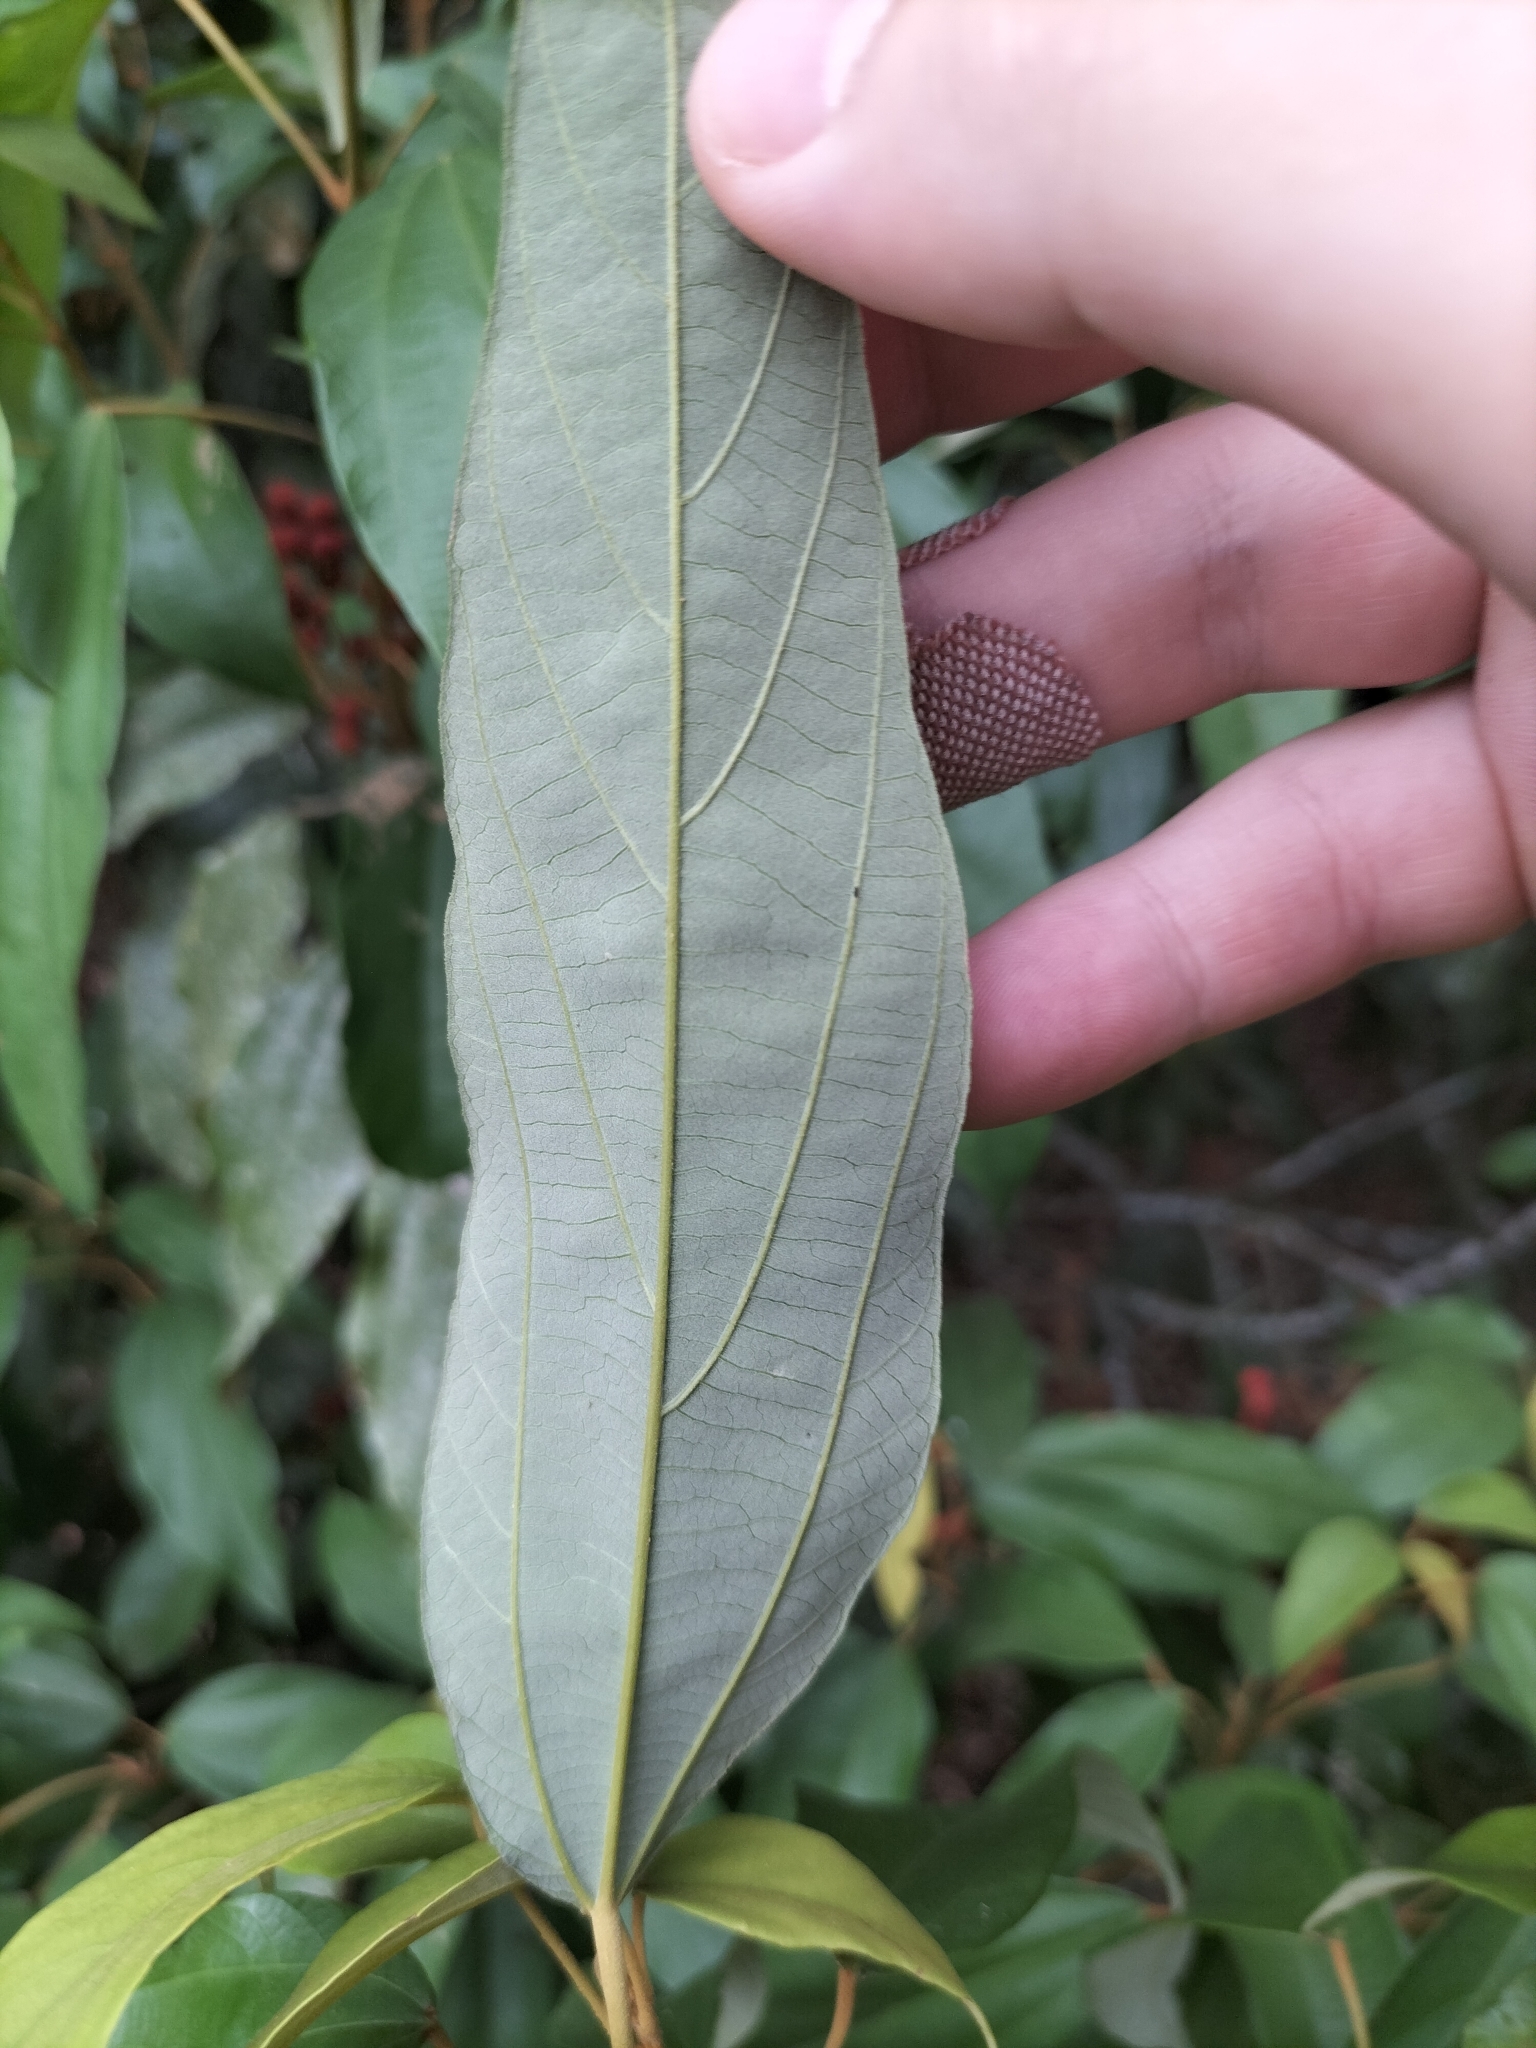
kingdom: Plantae
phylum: Tracheophyta
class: Magnoliopsida
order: Malpighiales
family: Euphorbiaceae
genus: Mallotus
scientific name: Mallotus philippensis
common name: Kamala tree
